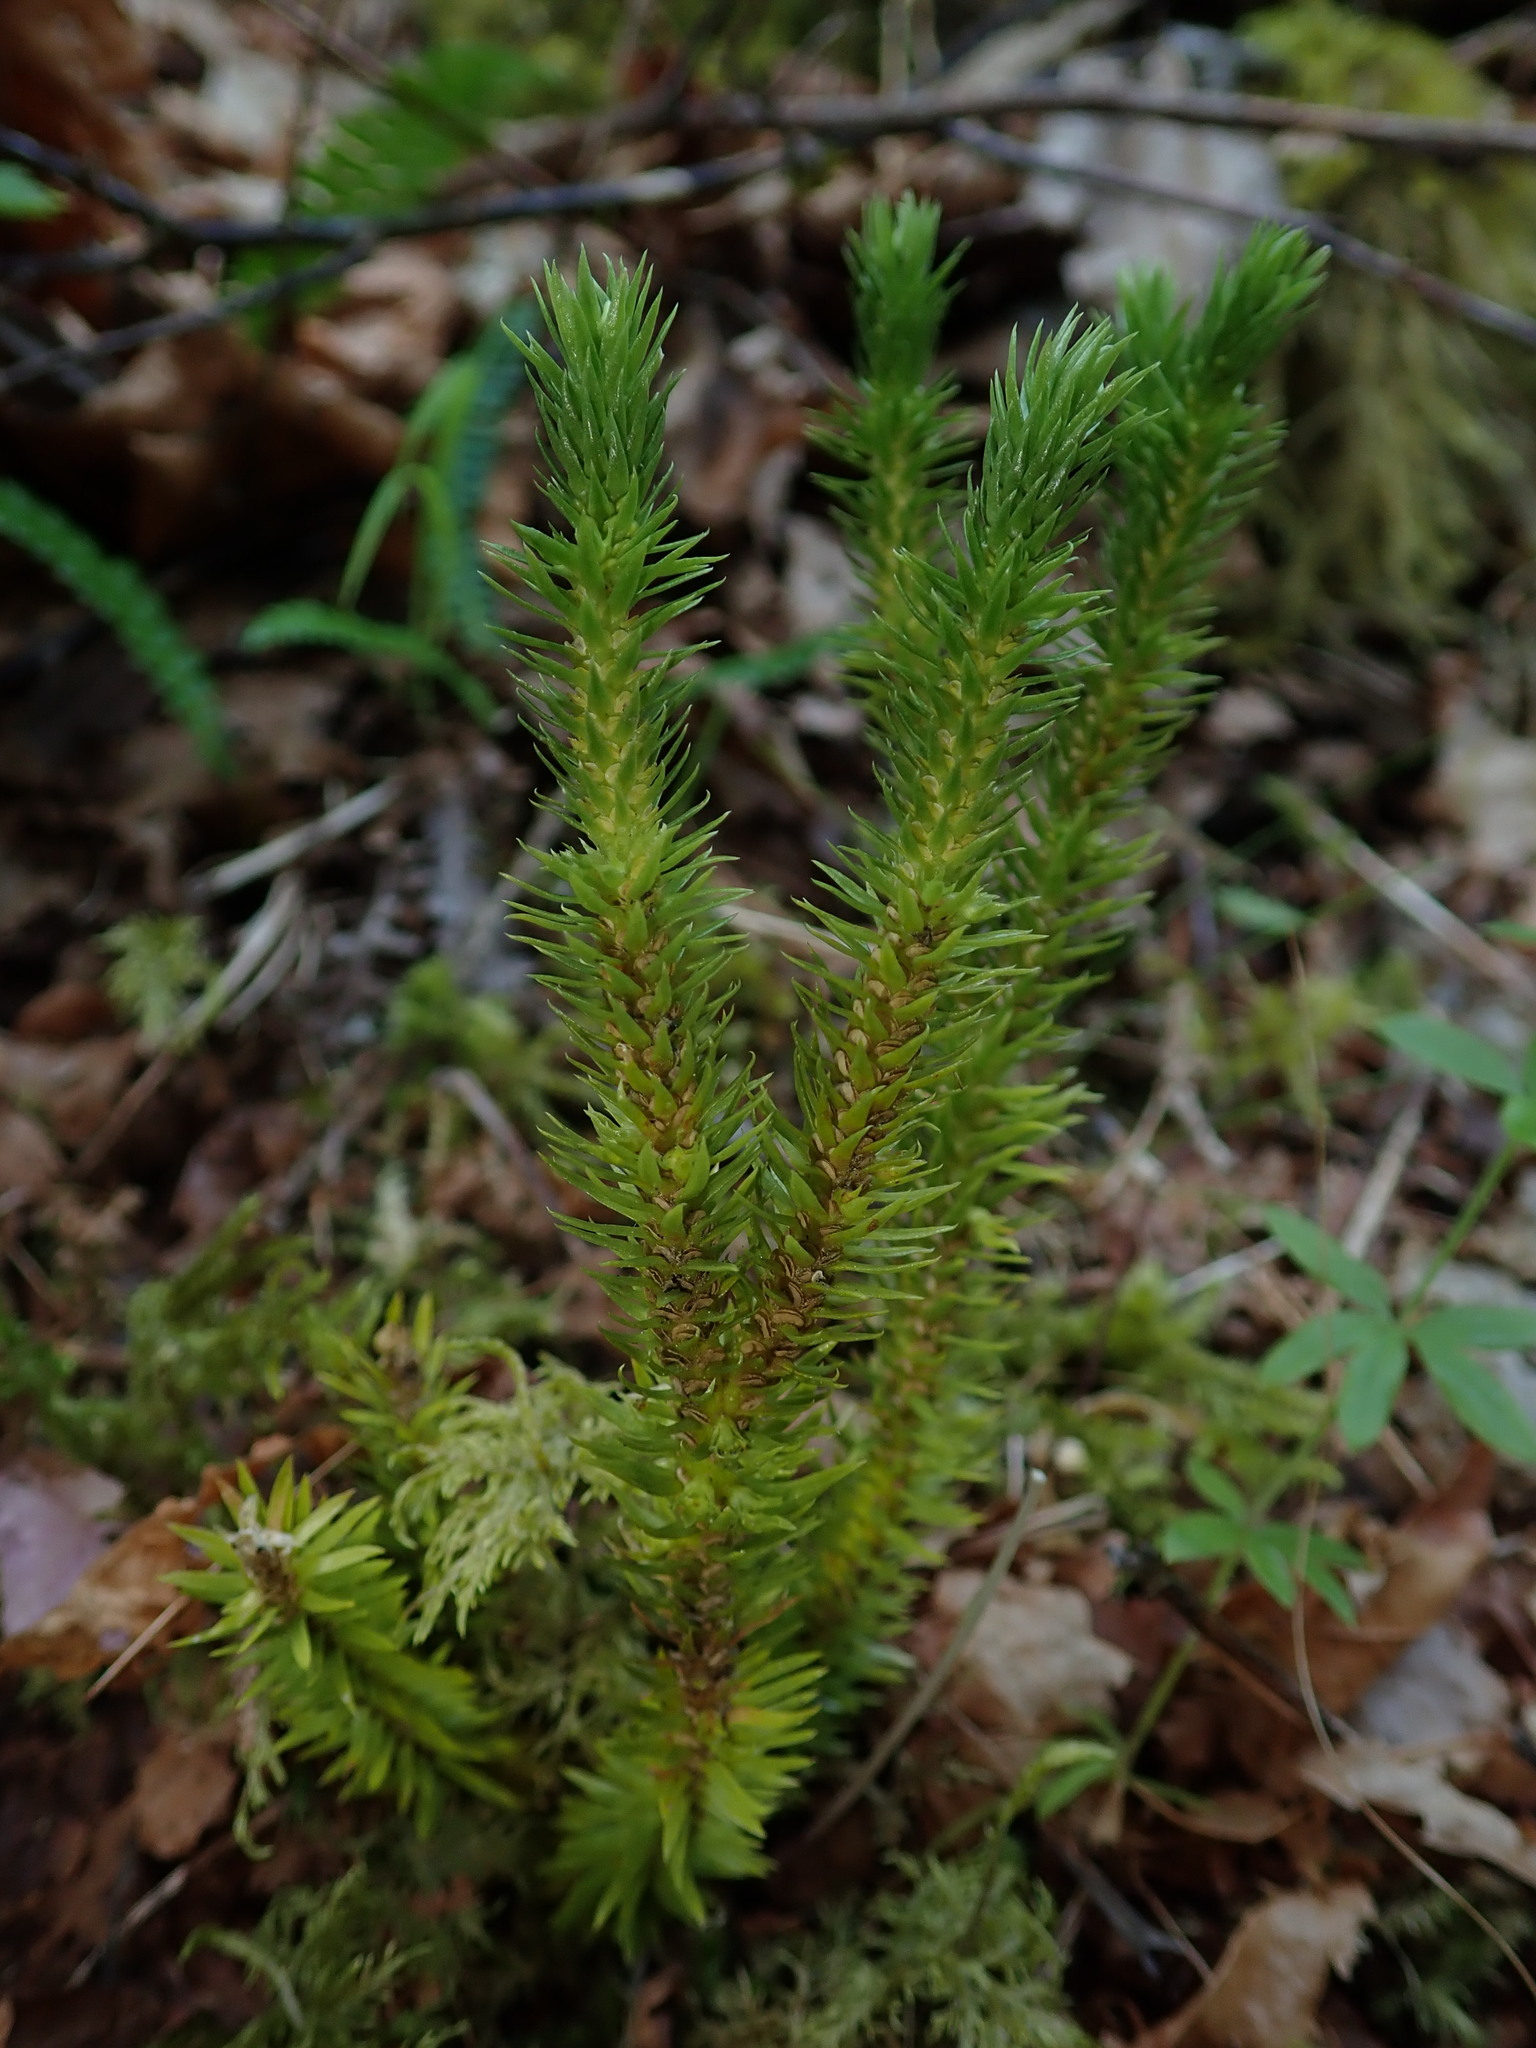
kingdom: Plantae
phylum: Tracheophyta
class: Lycopodiopsida
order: Lycopodiales
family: Lycopodiaceae
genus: Huperzia
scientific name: Huperzia miyoshiana
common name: Chinese clubmoss
